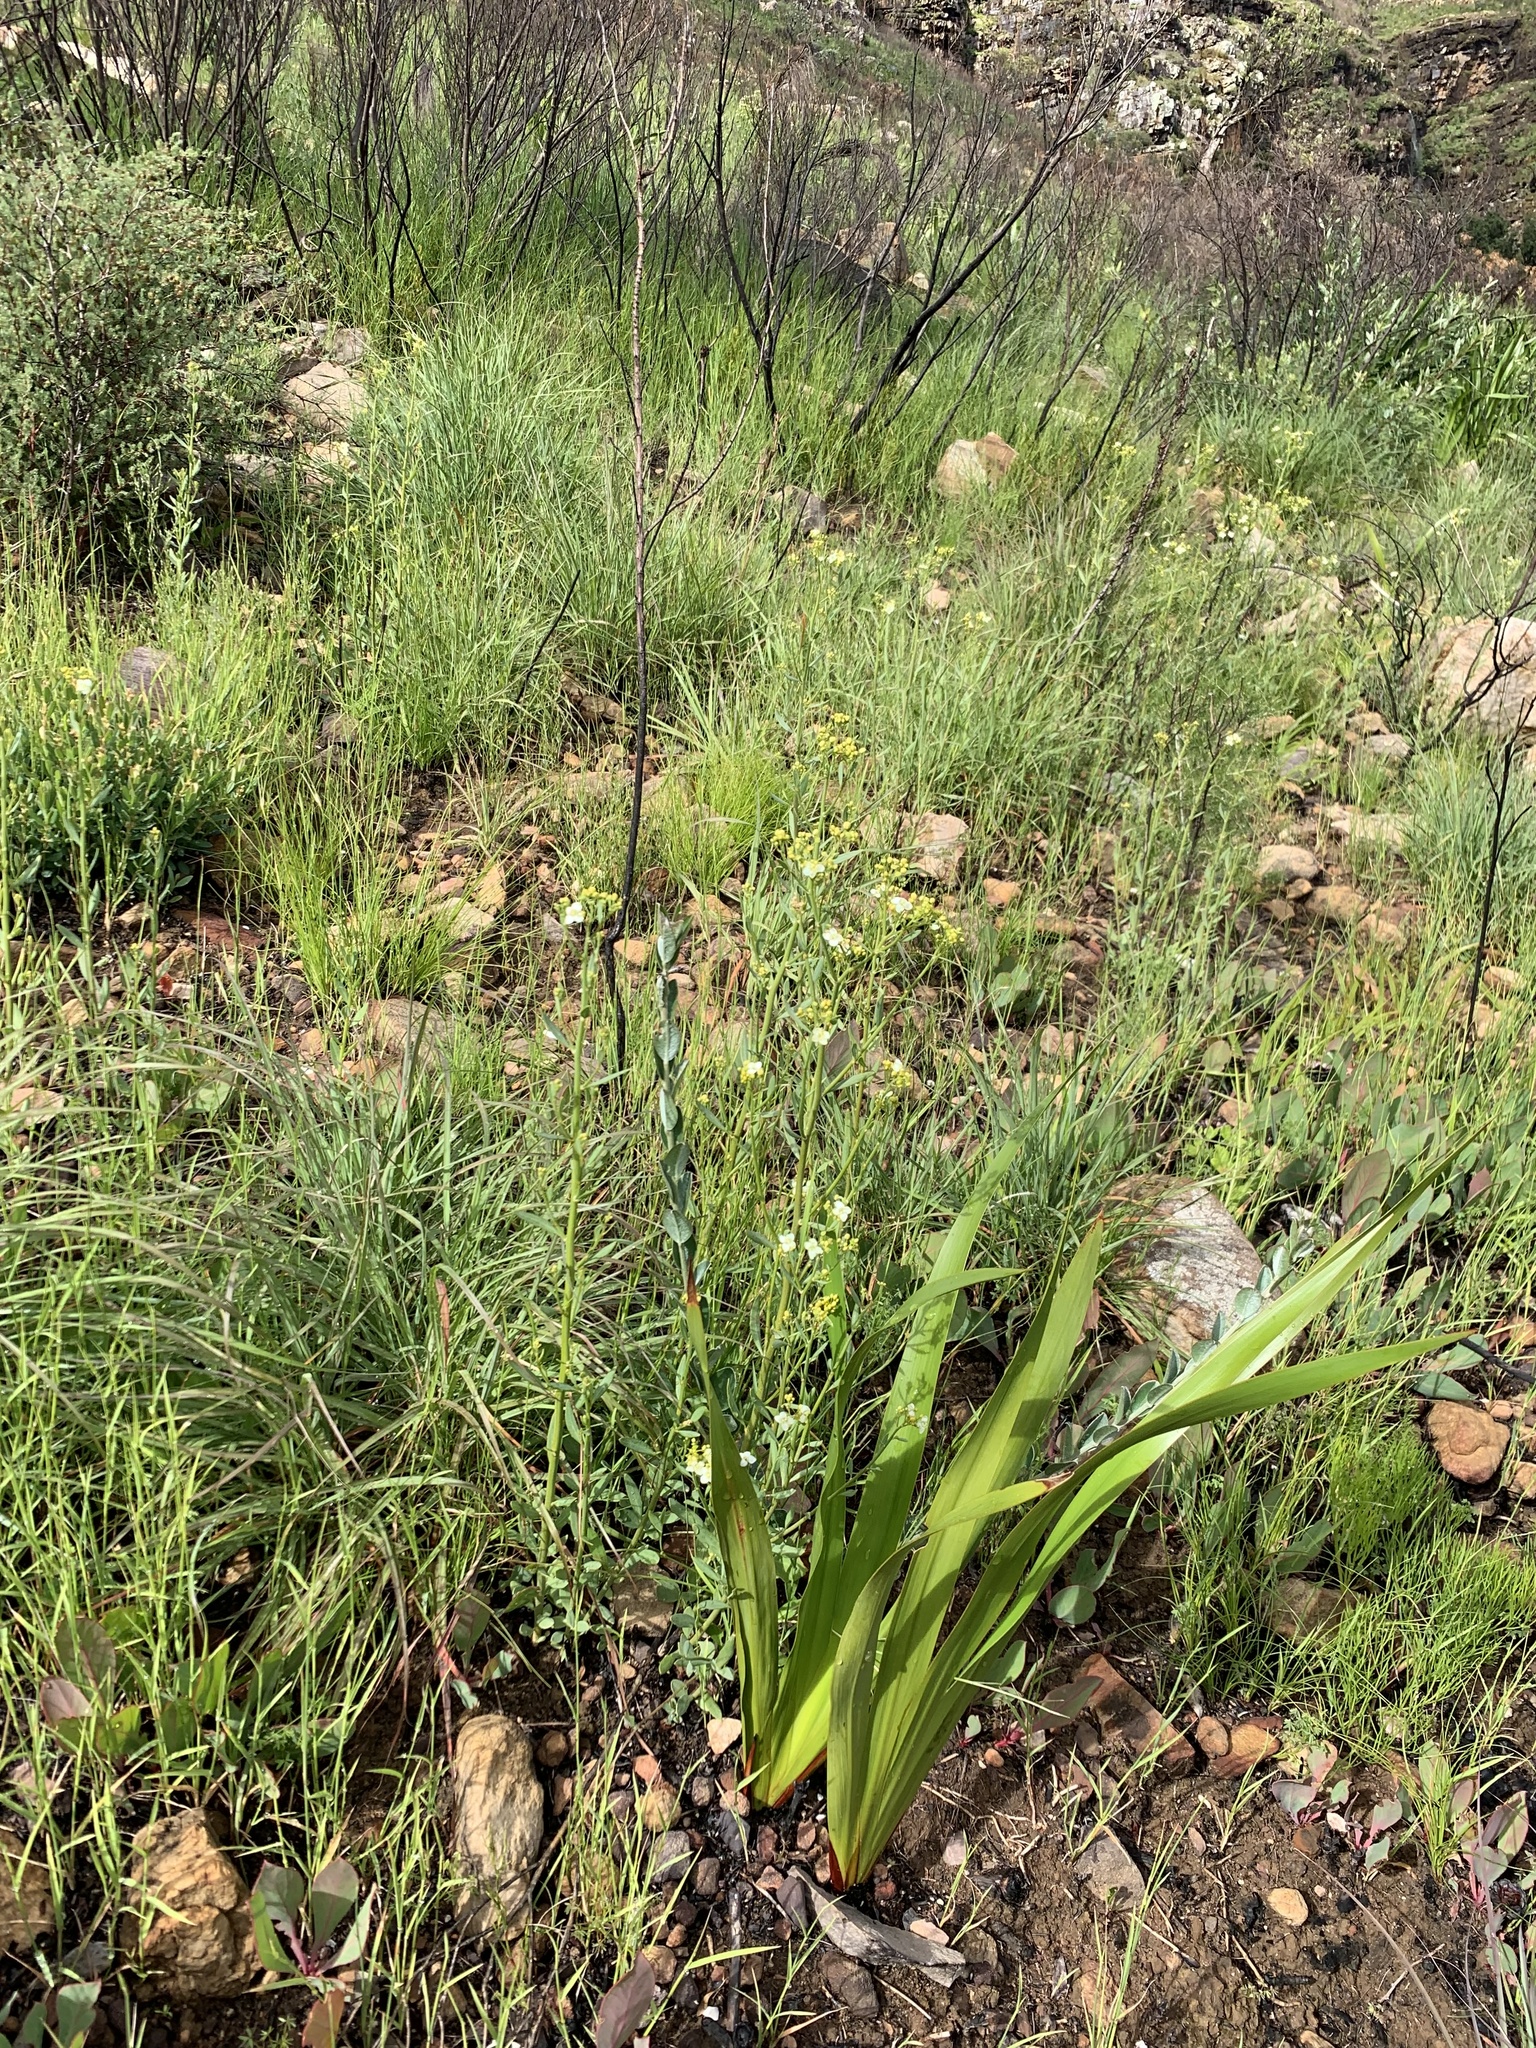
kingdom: Plantae
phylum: Tracheophyta
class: Magnoliopsida
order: Solanales
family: Montiniaceae
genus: Montinia
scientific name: Montinia caryophyllacea
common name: Wild clove-bush
